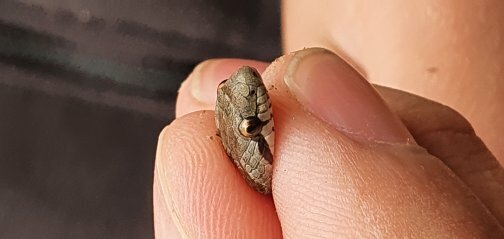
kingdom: Animalia
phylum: Chordata
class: Squamata
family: Colubridae
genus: Coronella
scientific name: Coronella girondica
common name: Southern smooth snake
